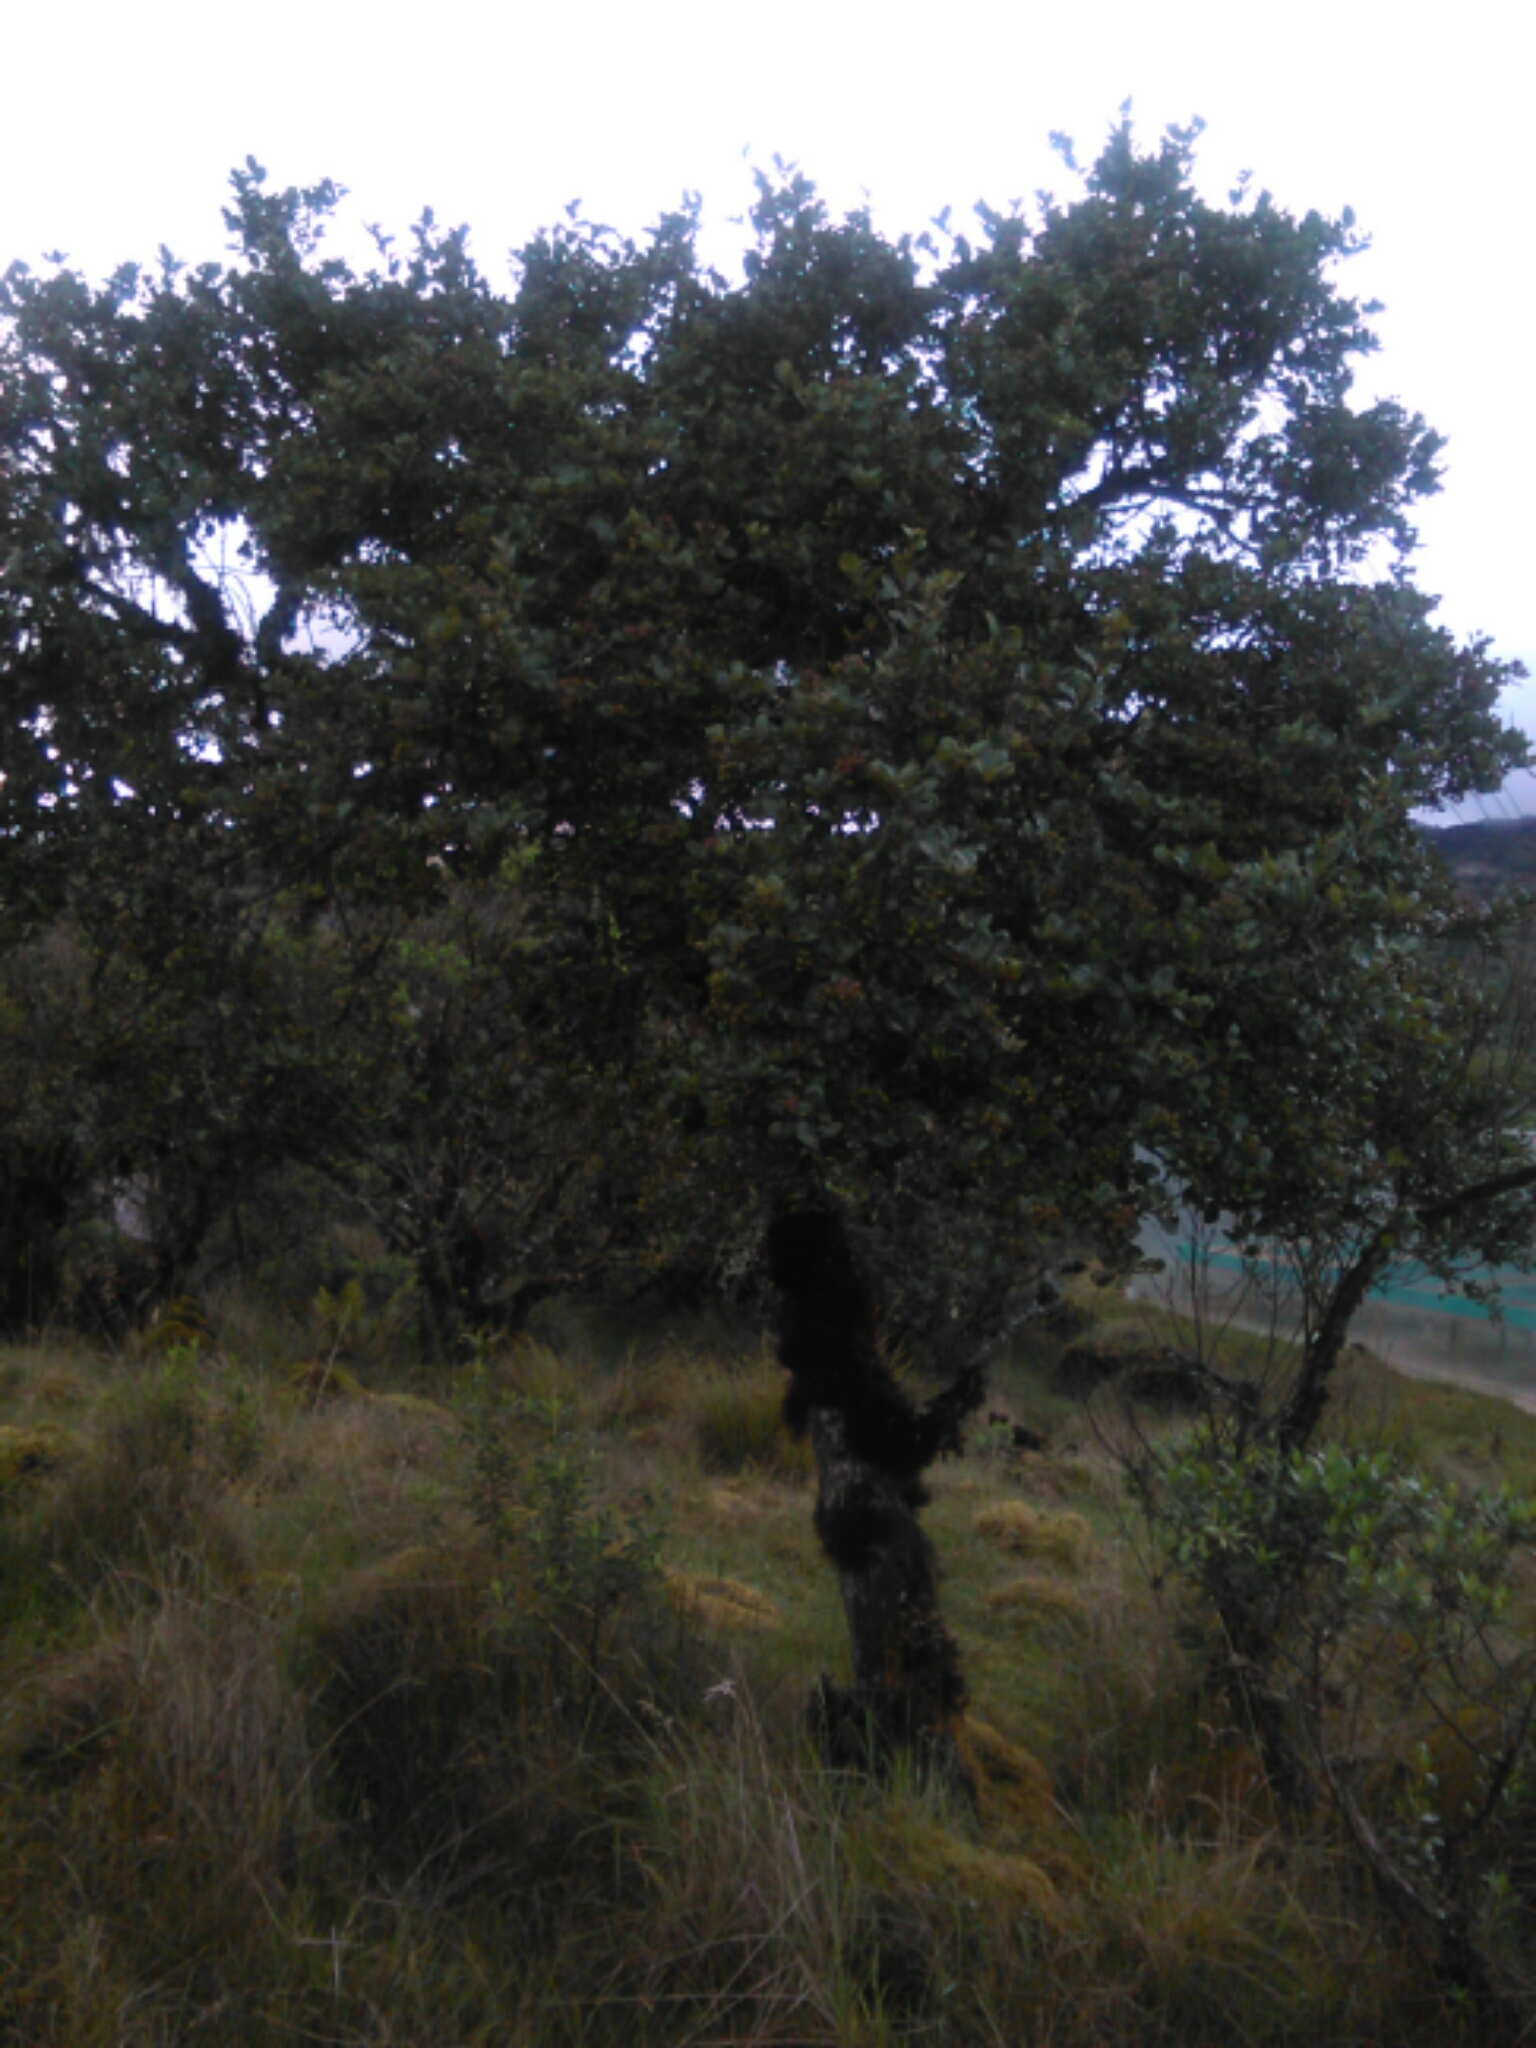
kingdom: Plantae
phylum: Tracheophyta
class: Magnoliopsida
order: Rosales
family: Rosaceae
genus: Hesperomeles
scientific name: Hesperomeles obtusifolia
